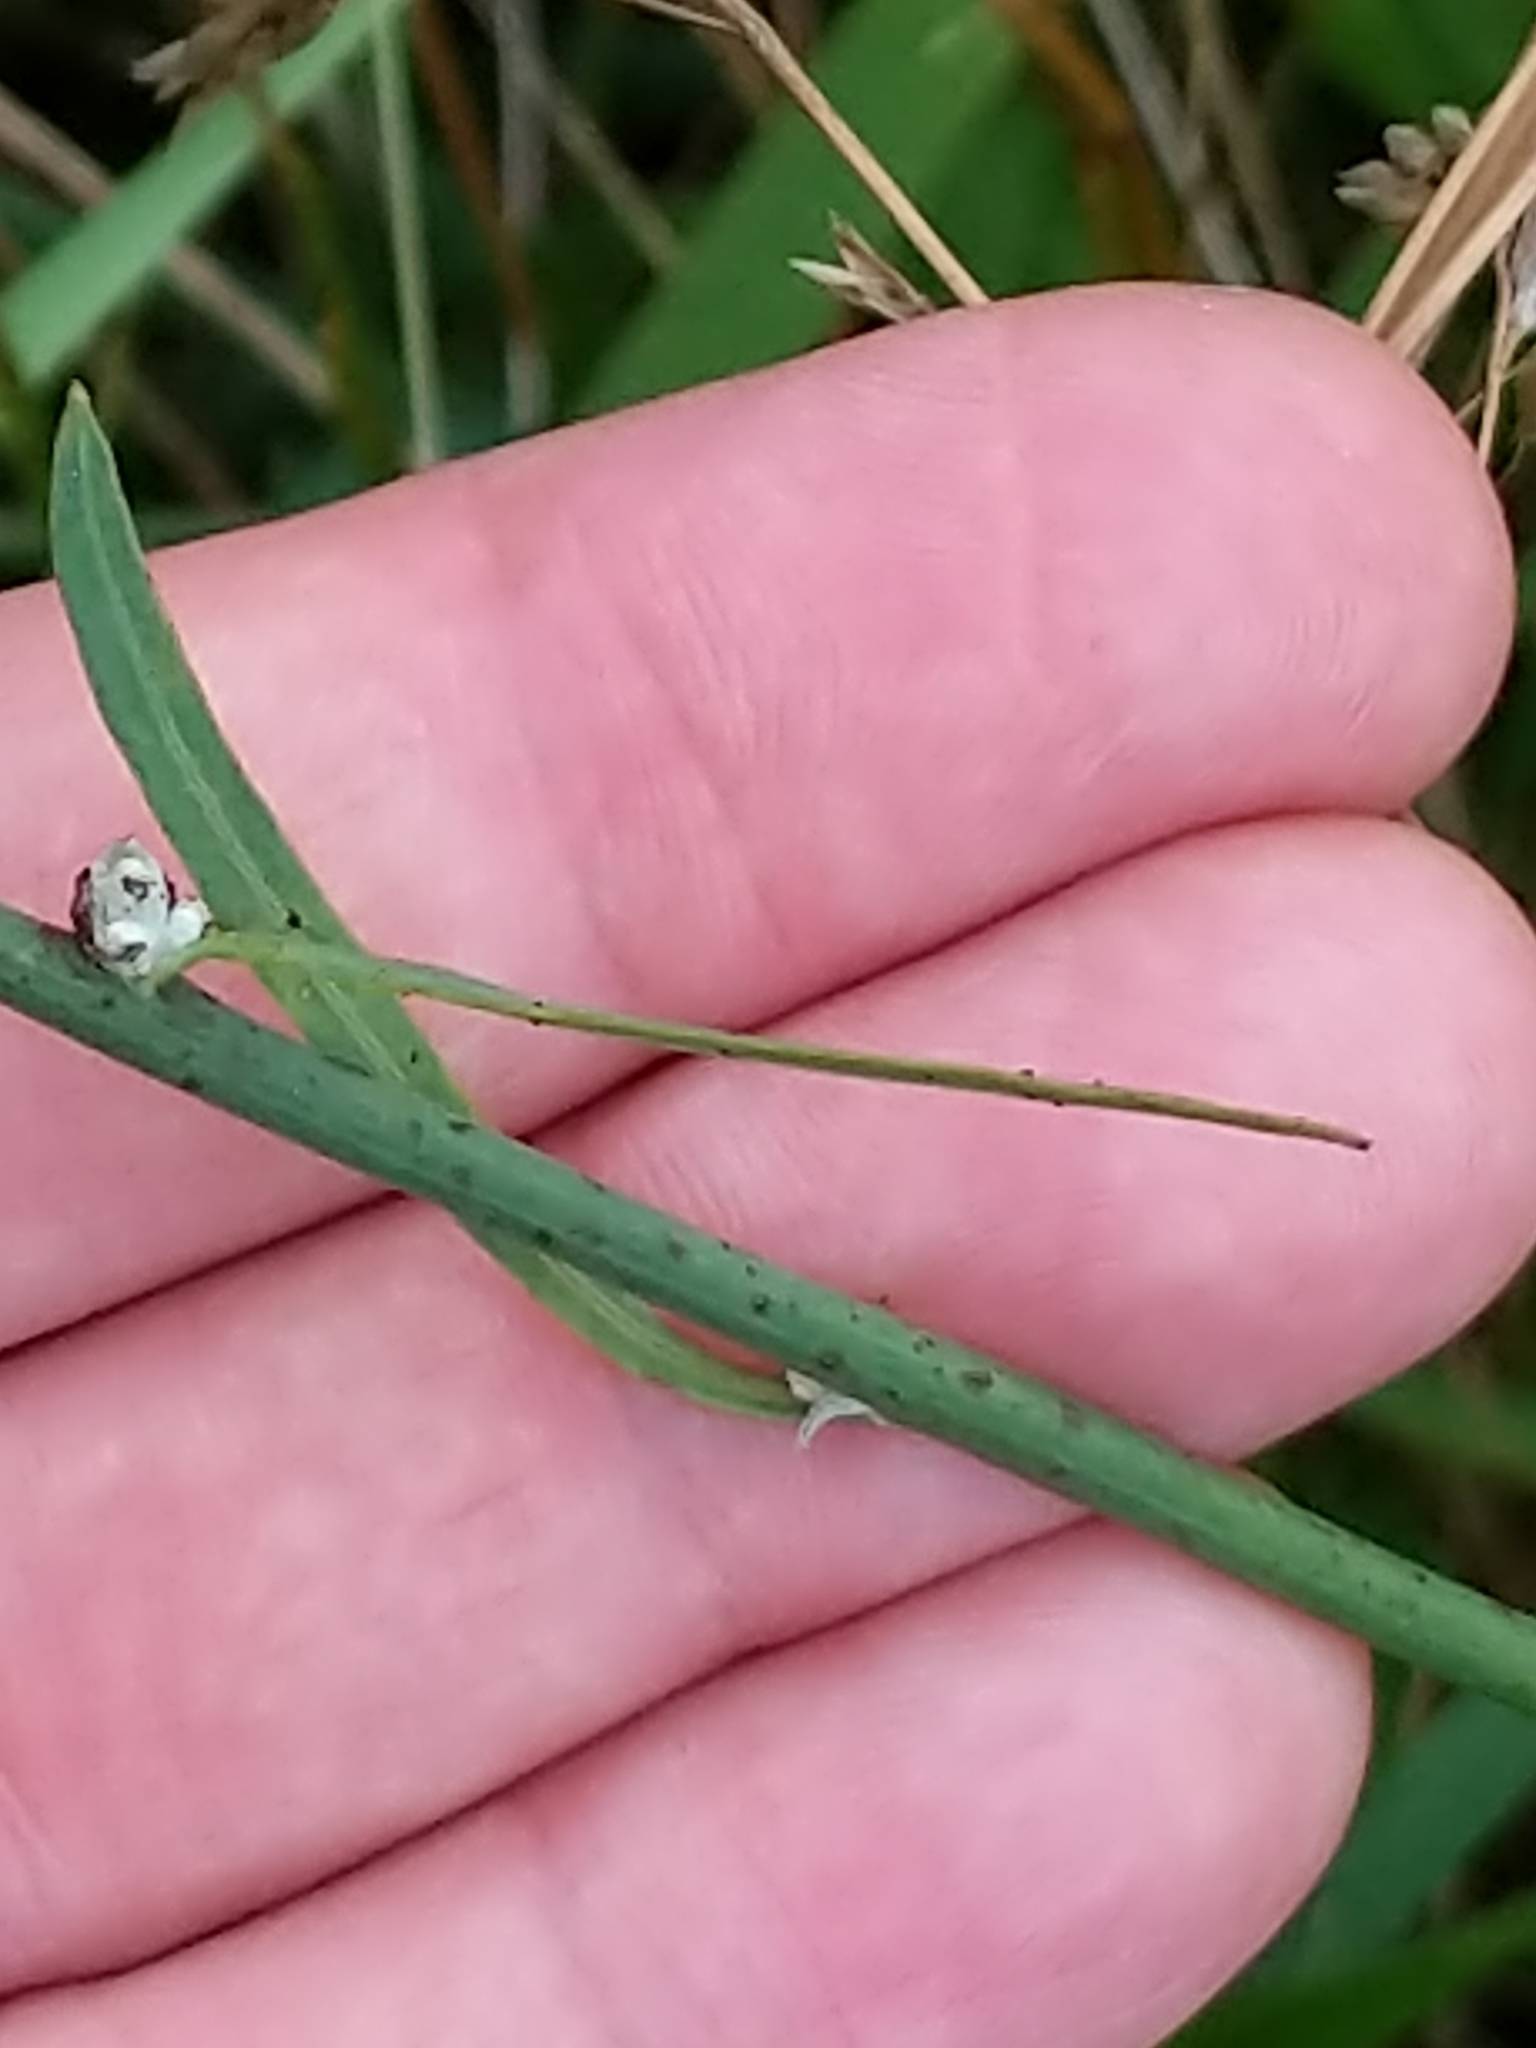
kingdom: Plantae
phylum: Tracheophyta
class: Magnoliopsida
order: Asterales
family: Asteraceae
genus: Chondrilla
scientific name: Chondrilla juncea
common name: Skeleton weed
